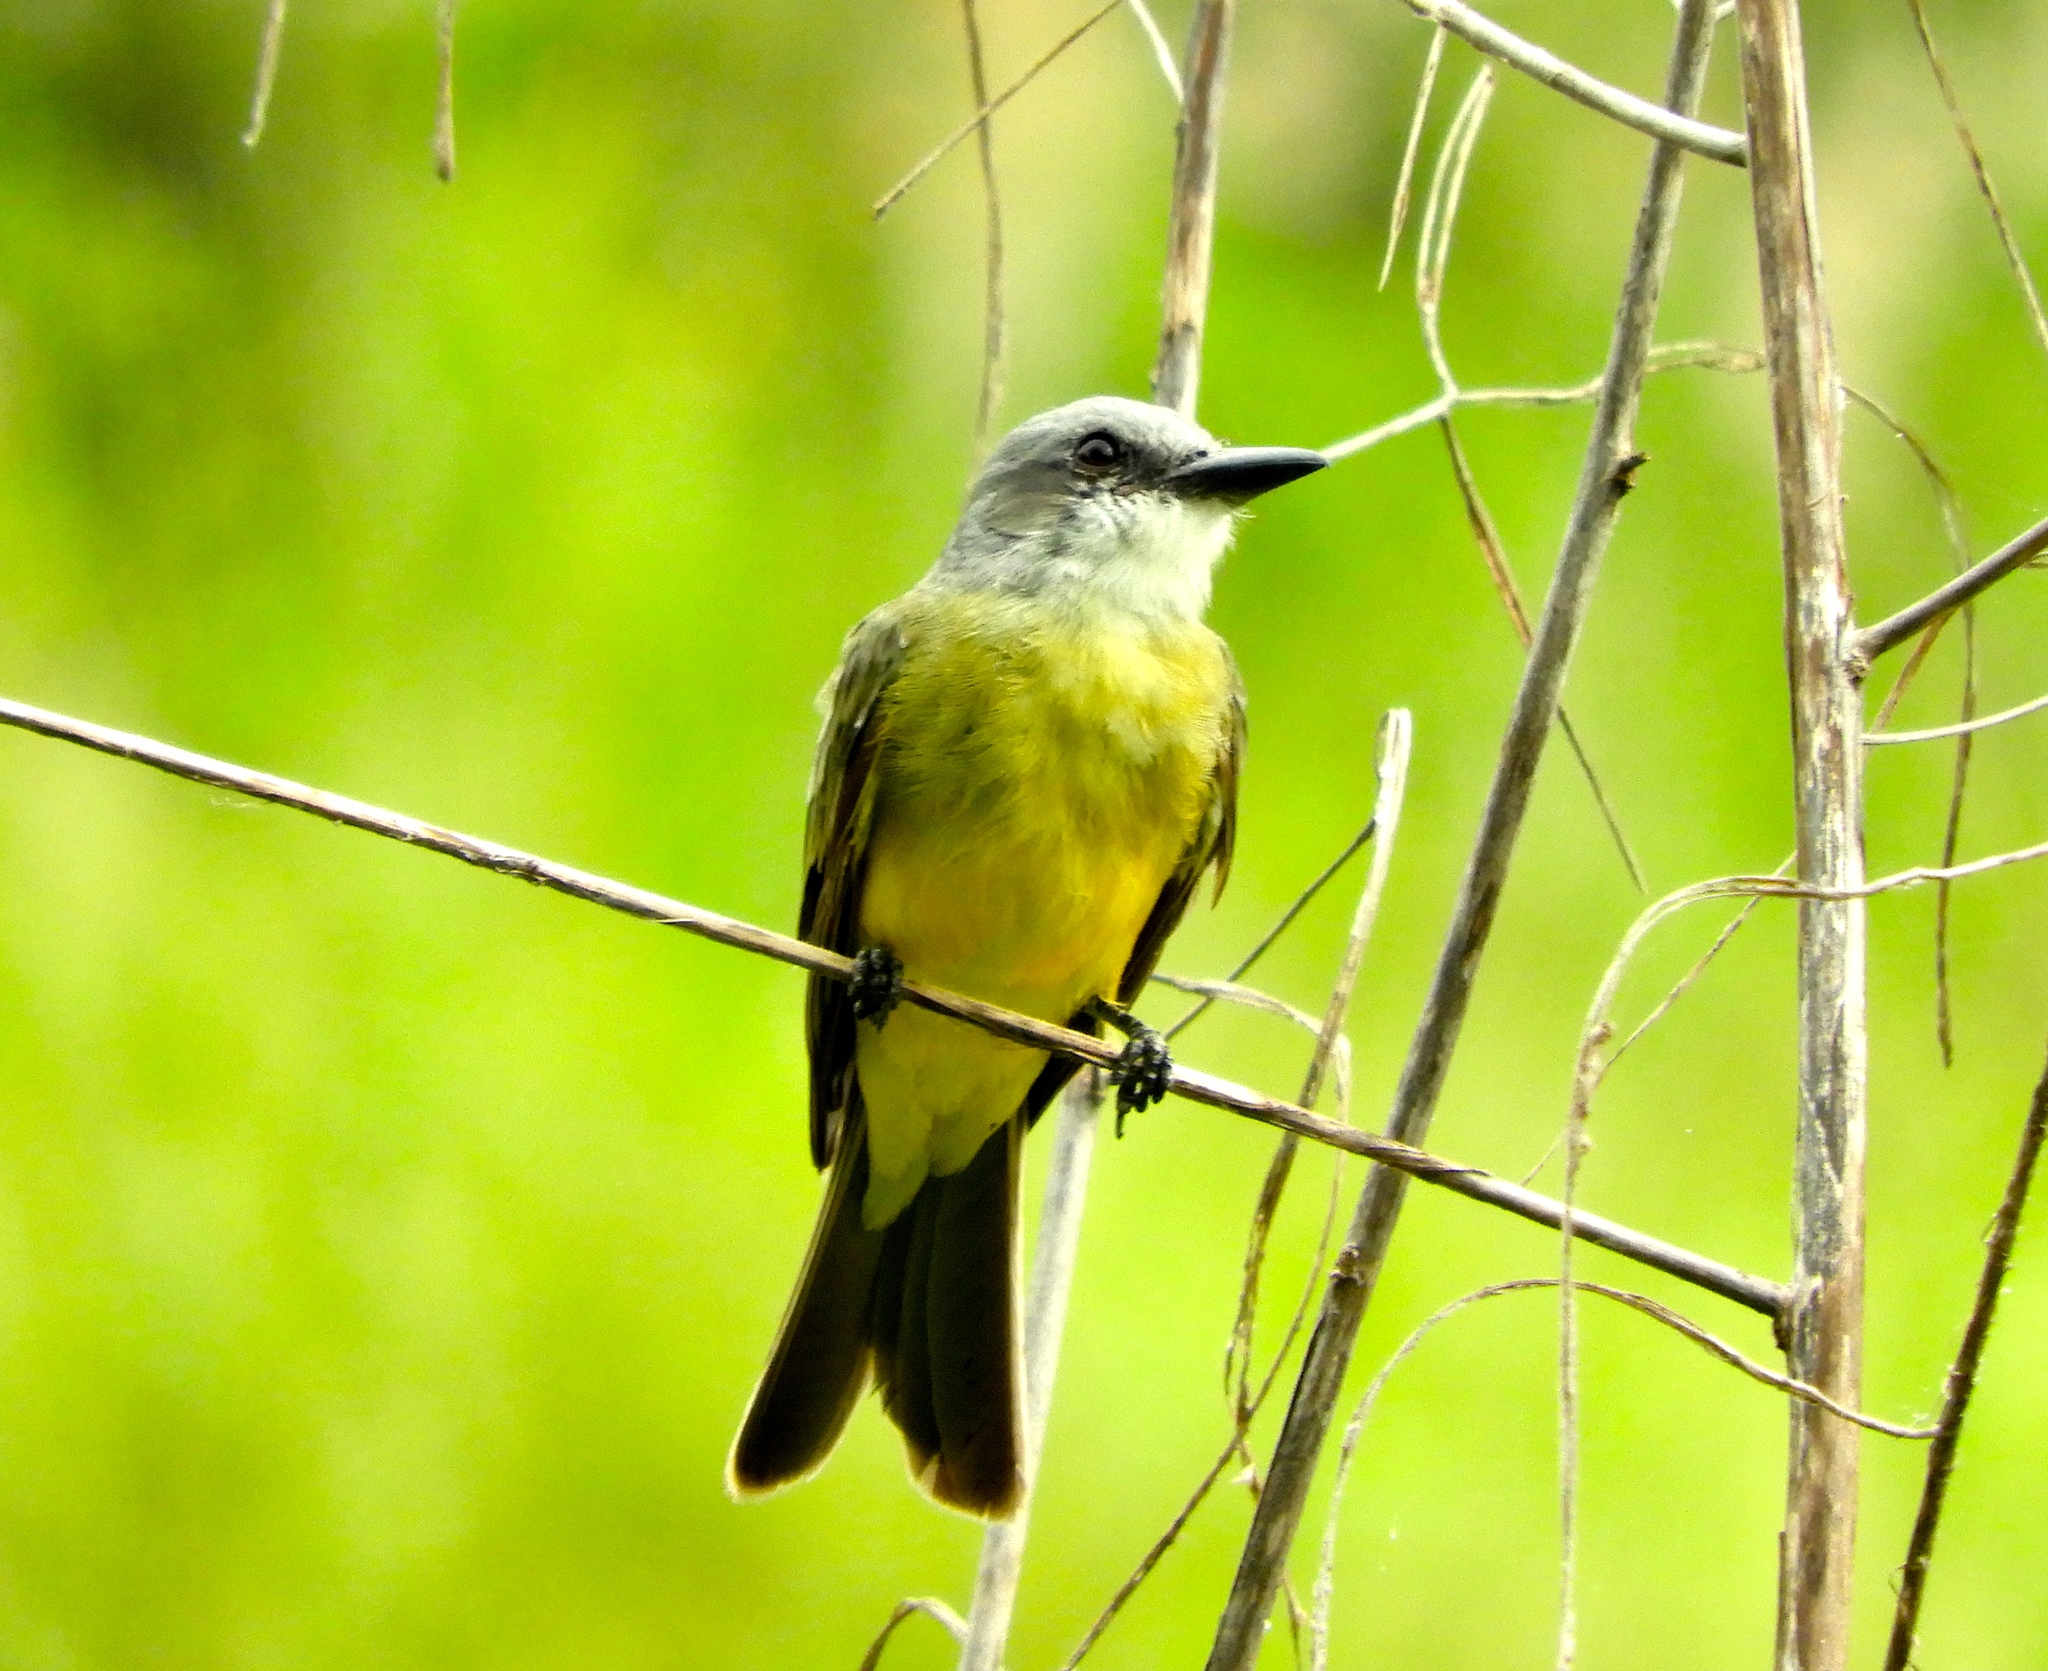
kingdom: Animalia
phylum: Chordata
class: Aves
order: Passeriformes
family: Tyrannidae
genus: Tyrannus
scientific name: Tyrannus melancholicus
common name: Tropical kingbird
